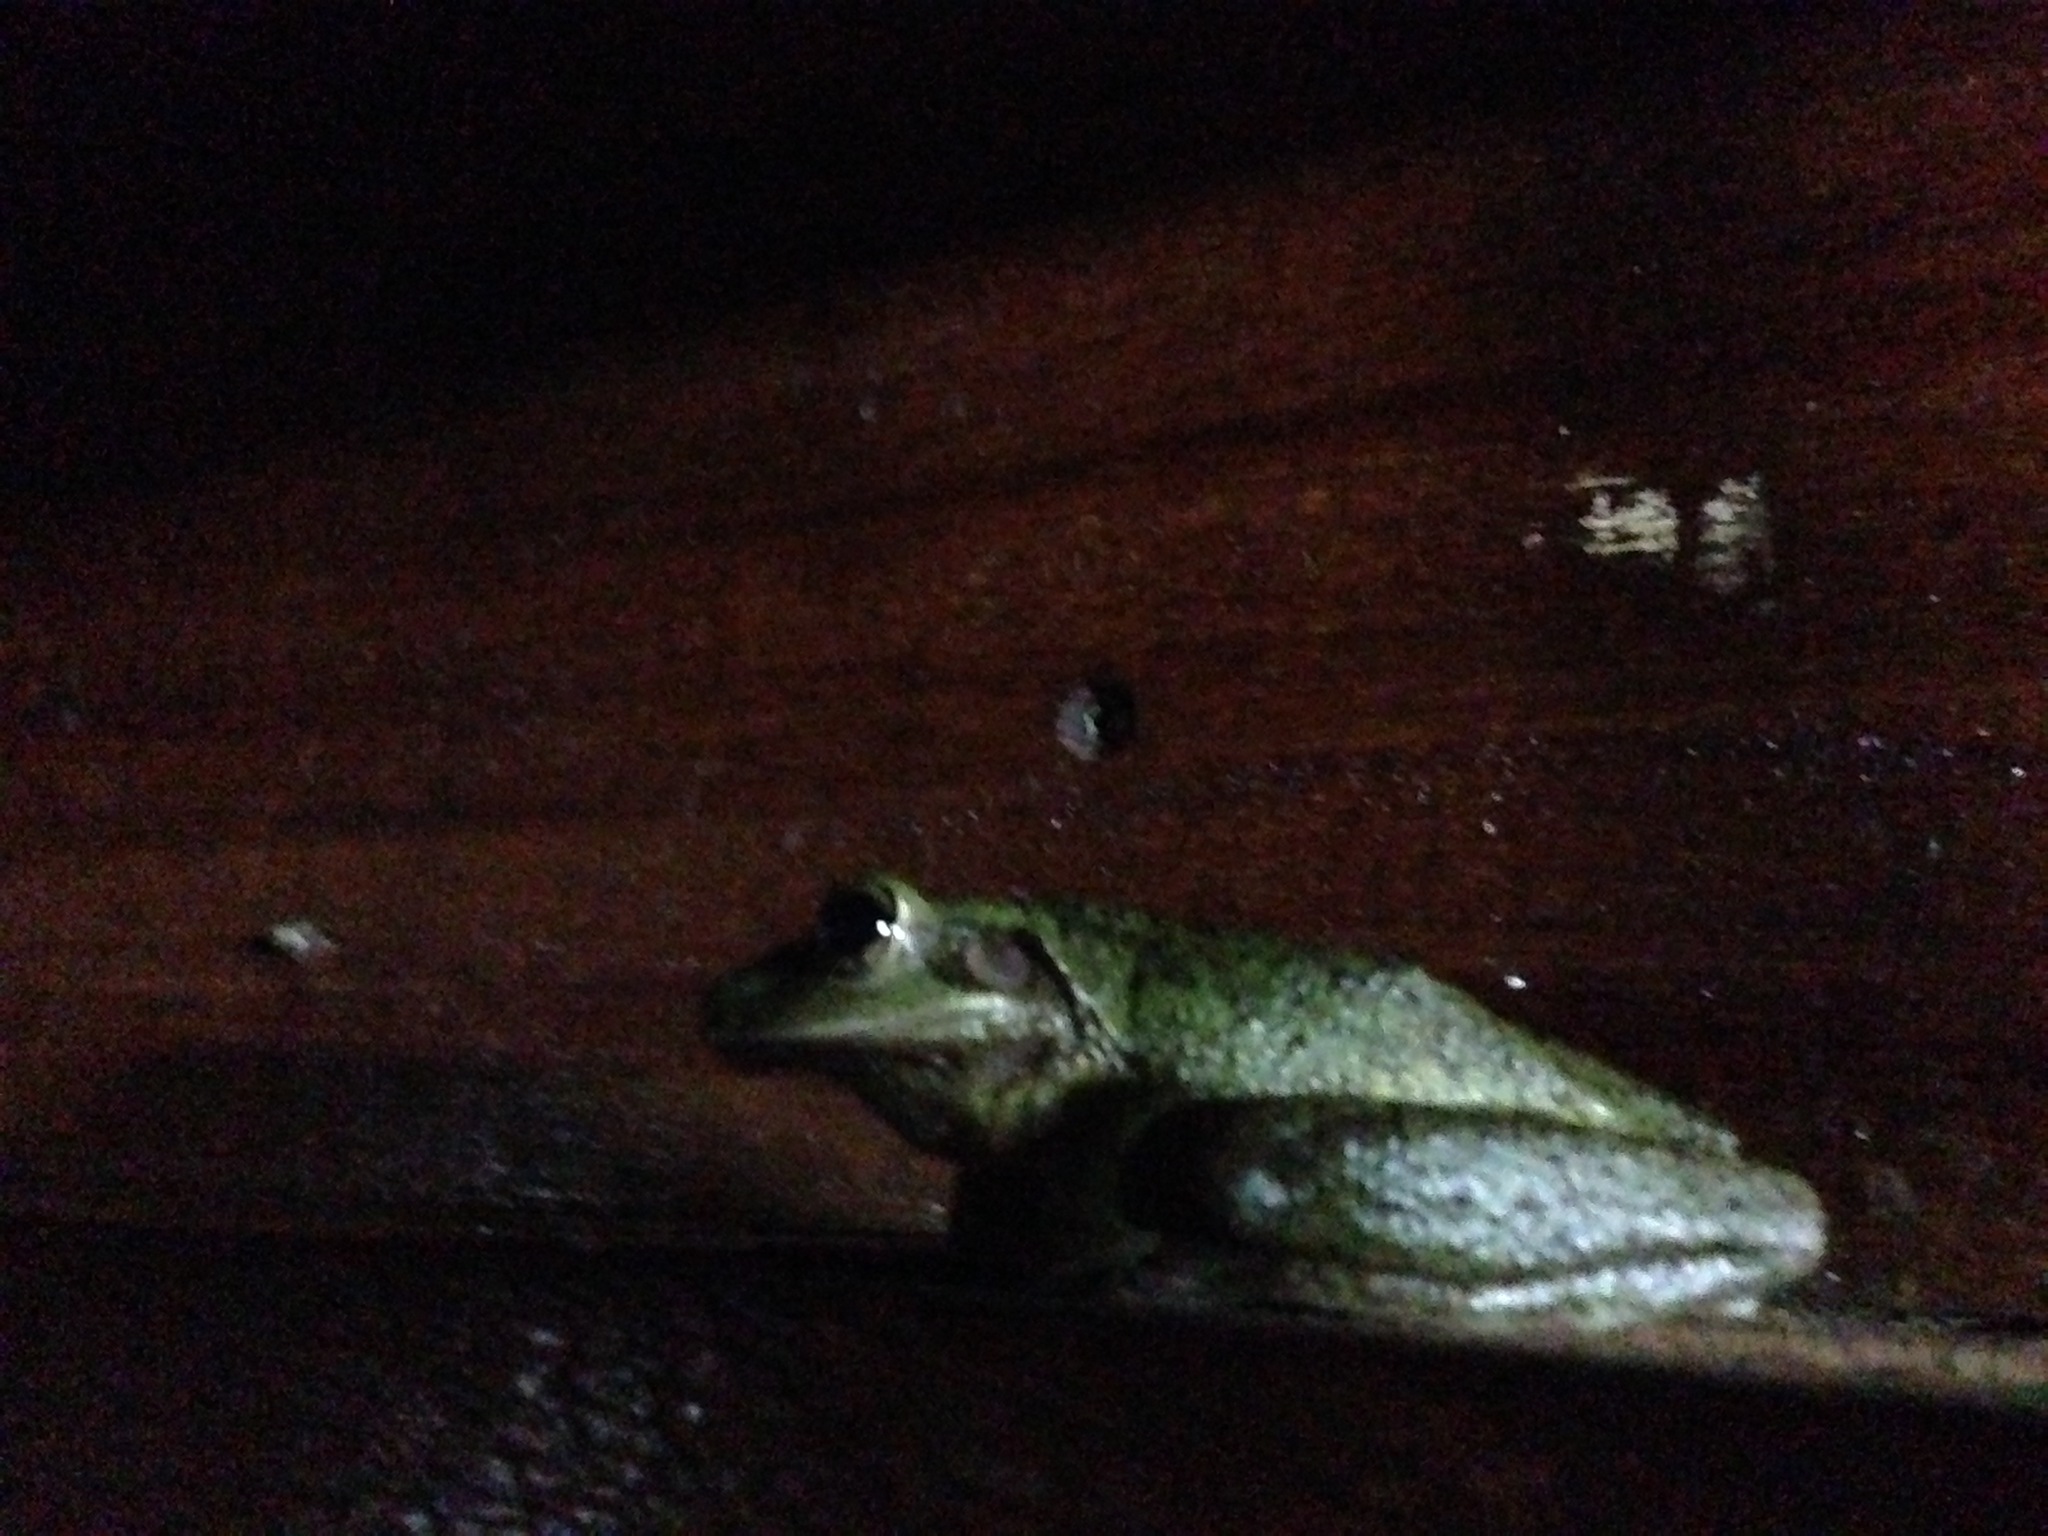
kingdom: Animalia
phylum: Chordata
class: Amphibia
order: Anura
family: Hylidae
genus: Osteopilus
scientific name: Osteopilus septentrionalis
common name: Cuban treefrog
